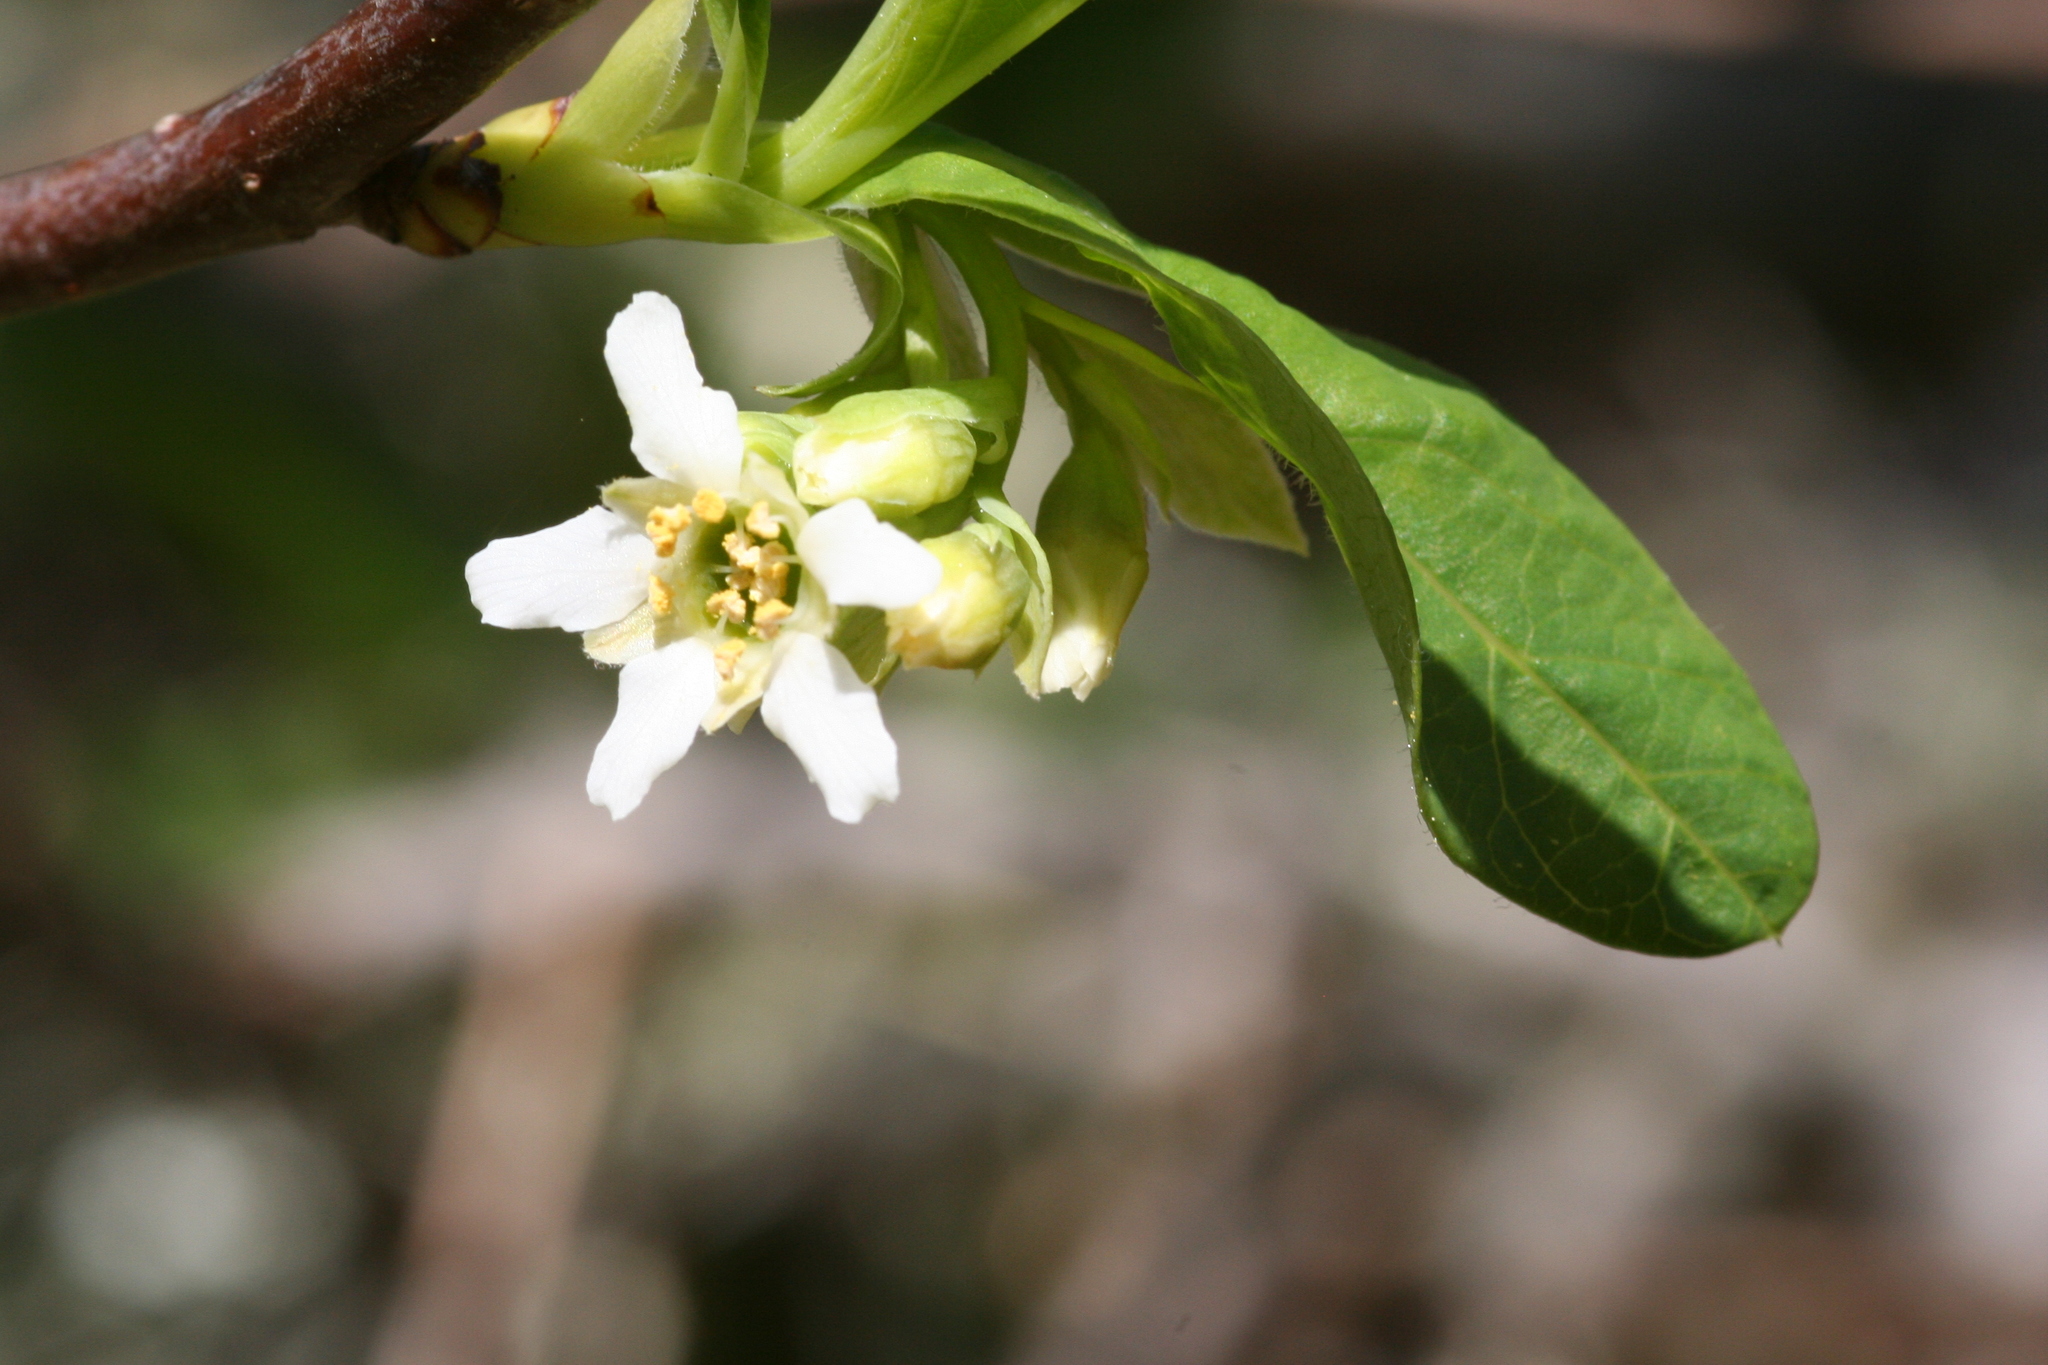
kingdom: Plantae
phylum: Tracheophyta
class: Magnoliopsida
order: Rosales
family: Rosaceae
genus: Oemleria
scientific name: Oemleria cerasiformis
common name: Osoberry
